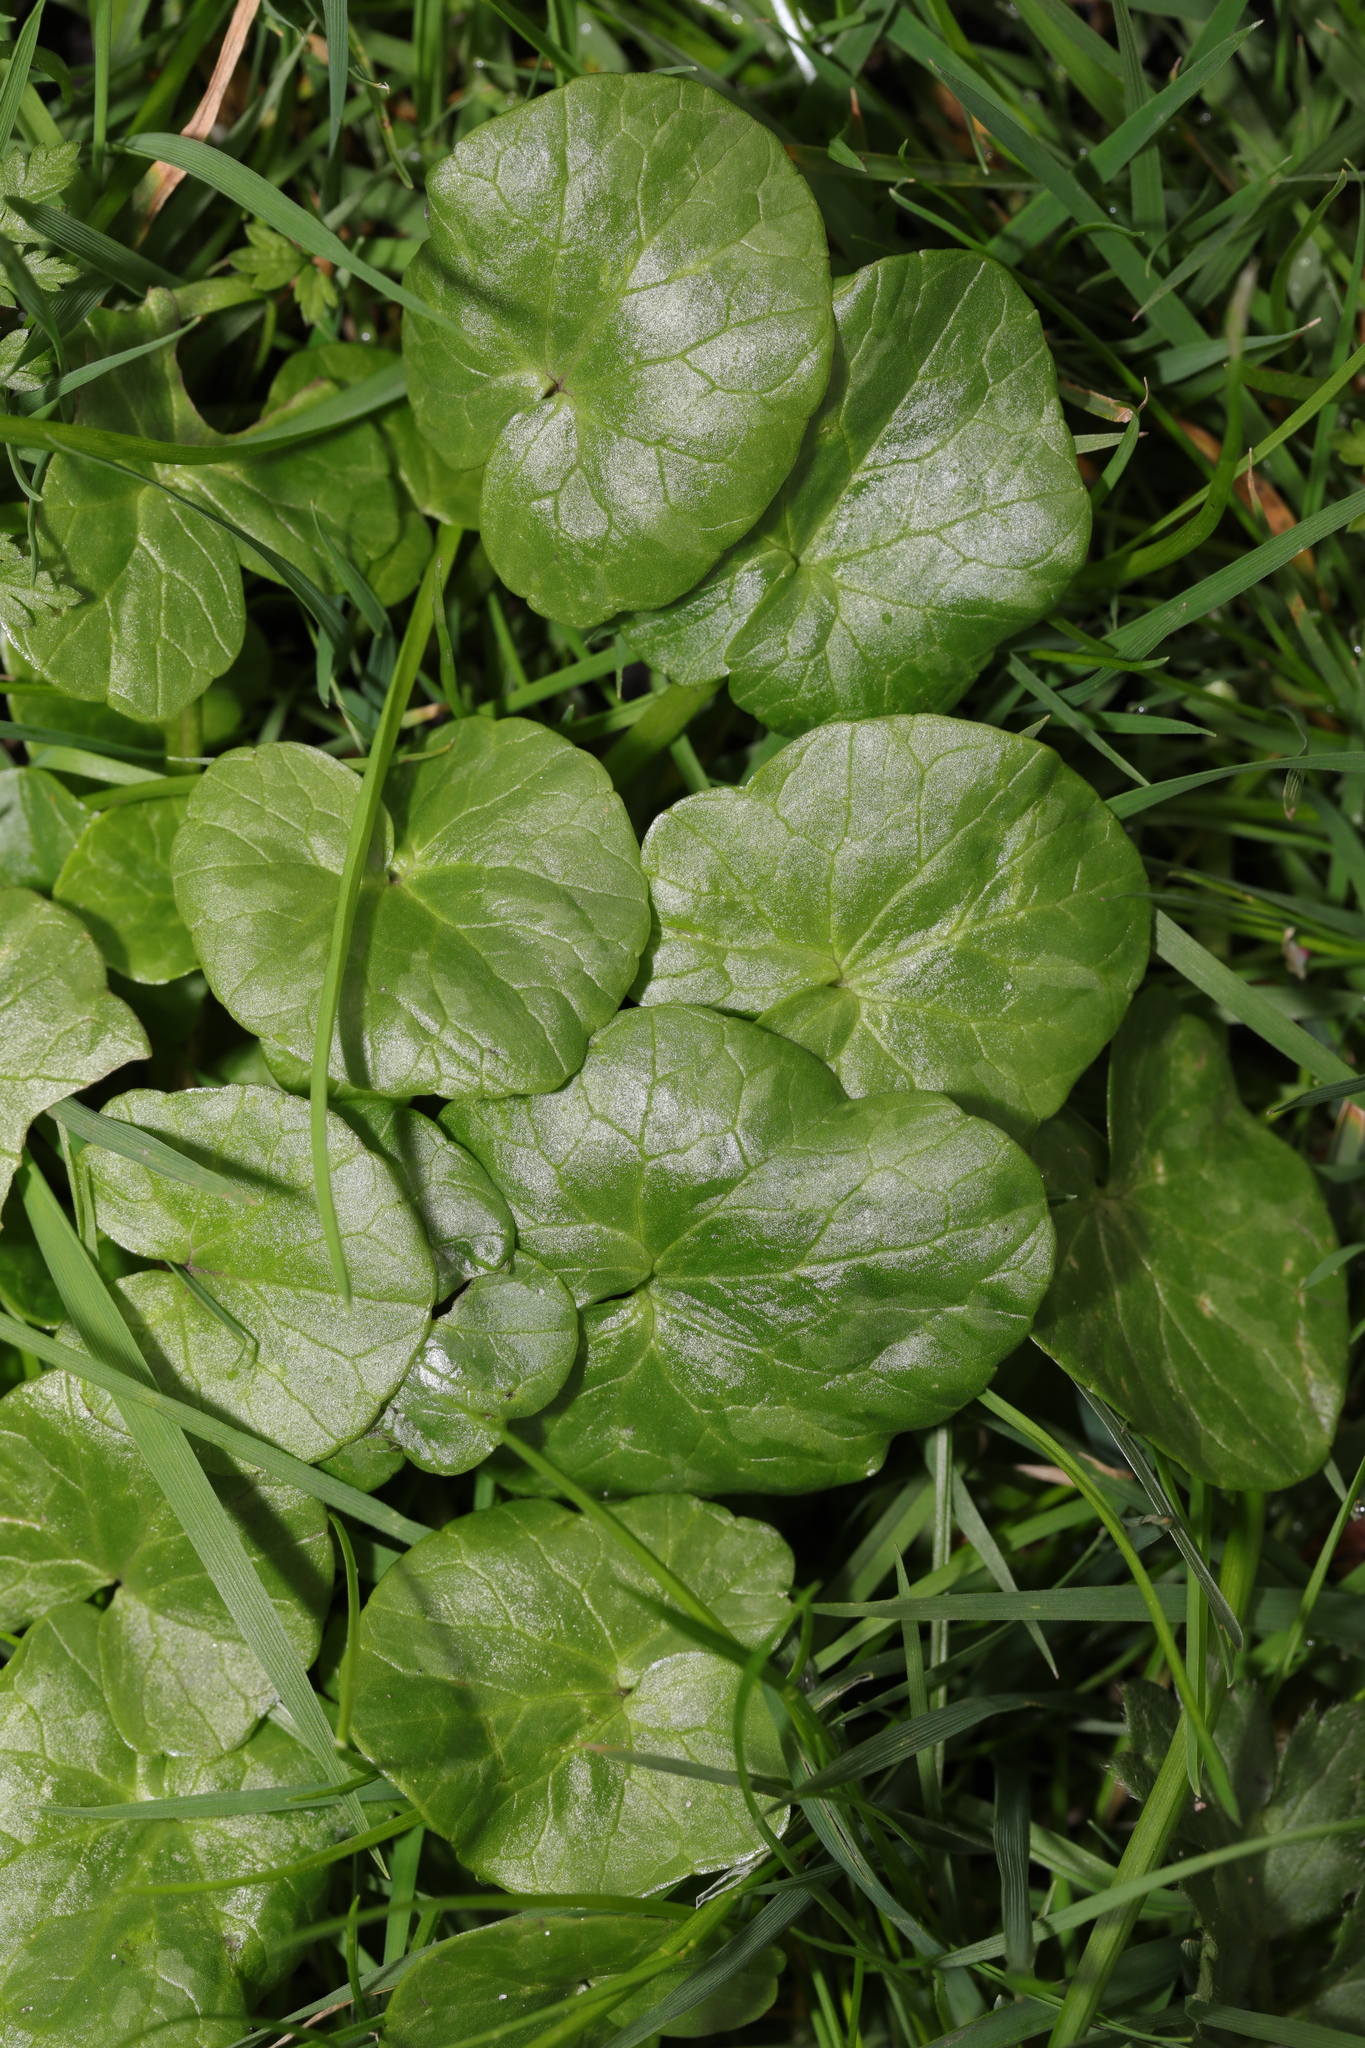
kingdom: Plantae
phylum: Tracheophyta
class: Magnoliopsida
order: Ranunculales
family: Ranunculaceae
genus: Ficaria
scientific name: Ficaria verna
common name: Lesser celandine
